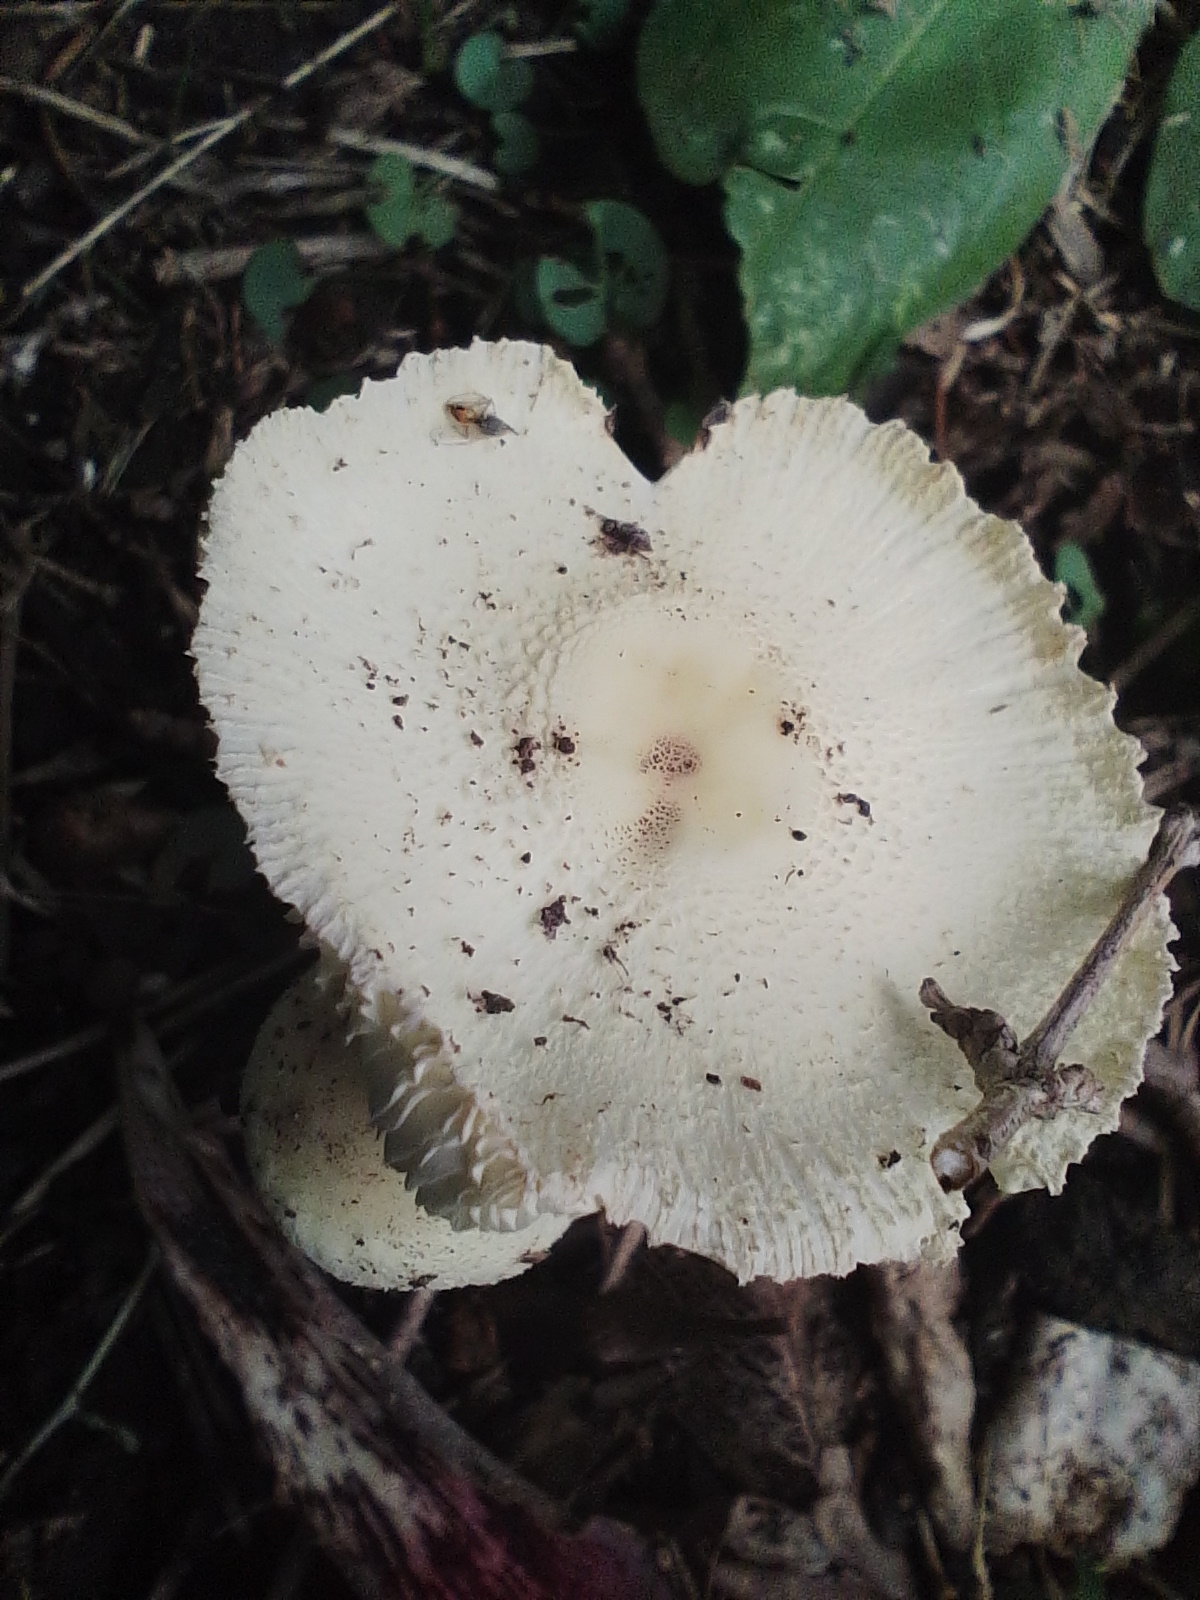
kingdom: Fungi
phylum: Basidiomycota
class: Agaricomycetes
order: Agaricales
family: Agaricaceae
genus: Leucocoprinus
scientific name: Leucocoprinus birnbaumii
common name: Plantpot dapperling
